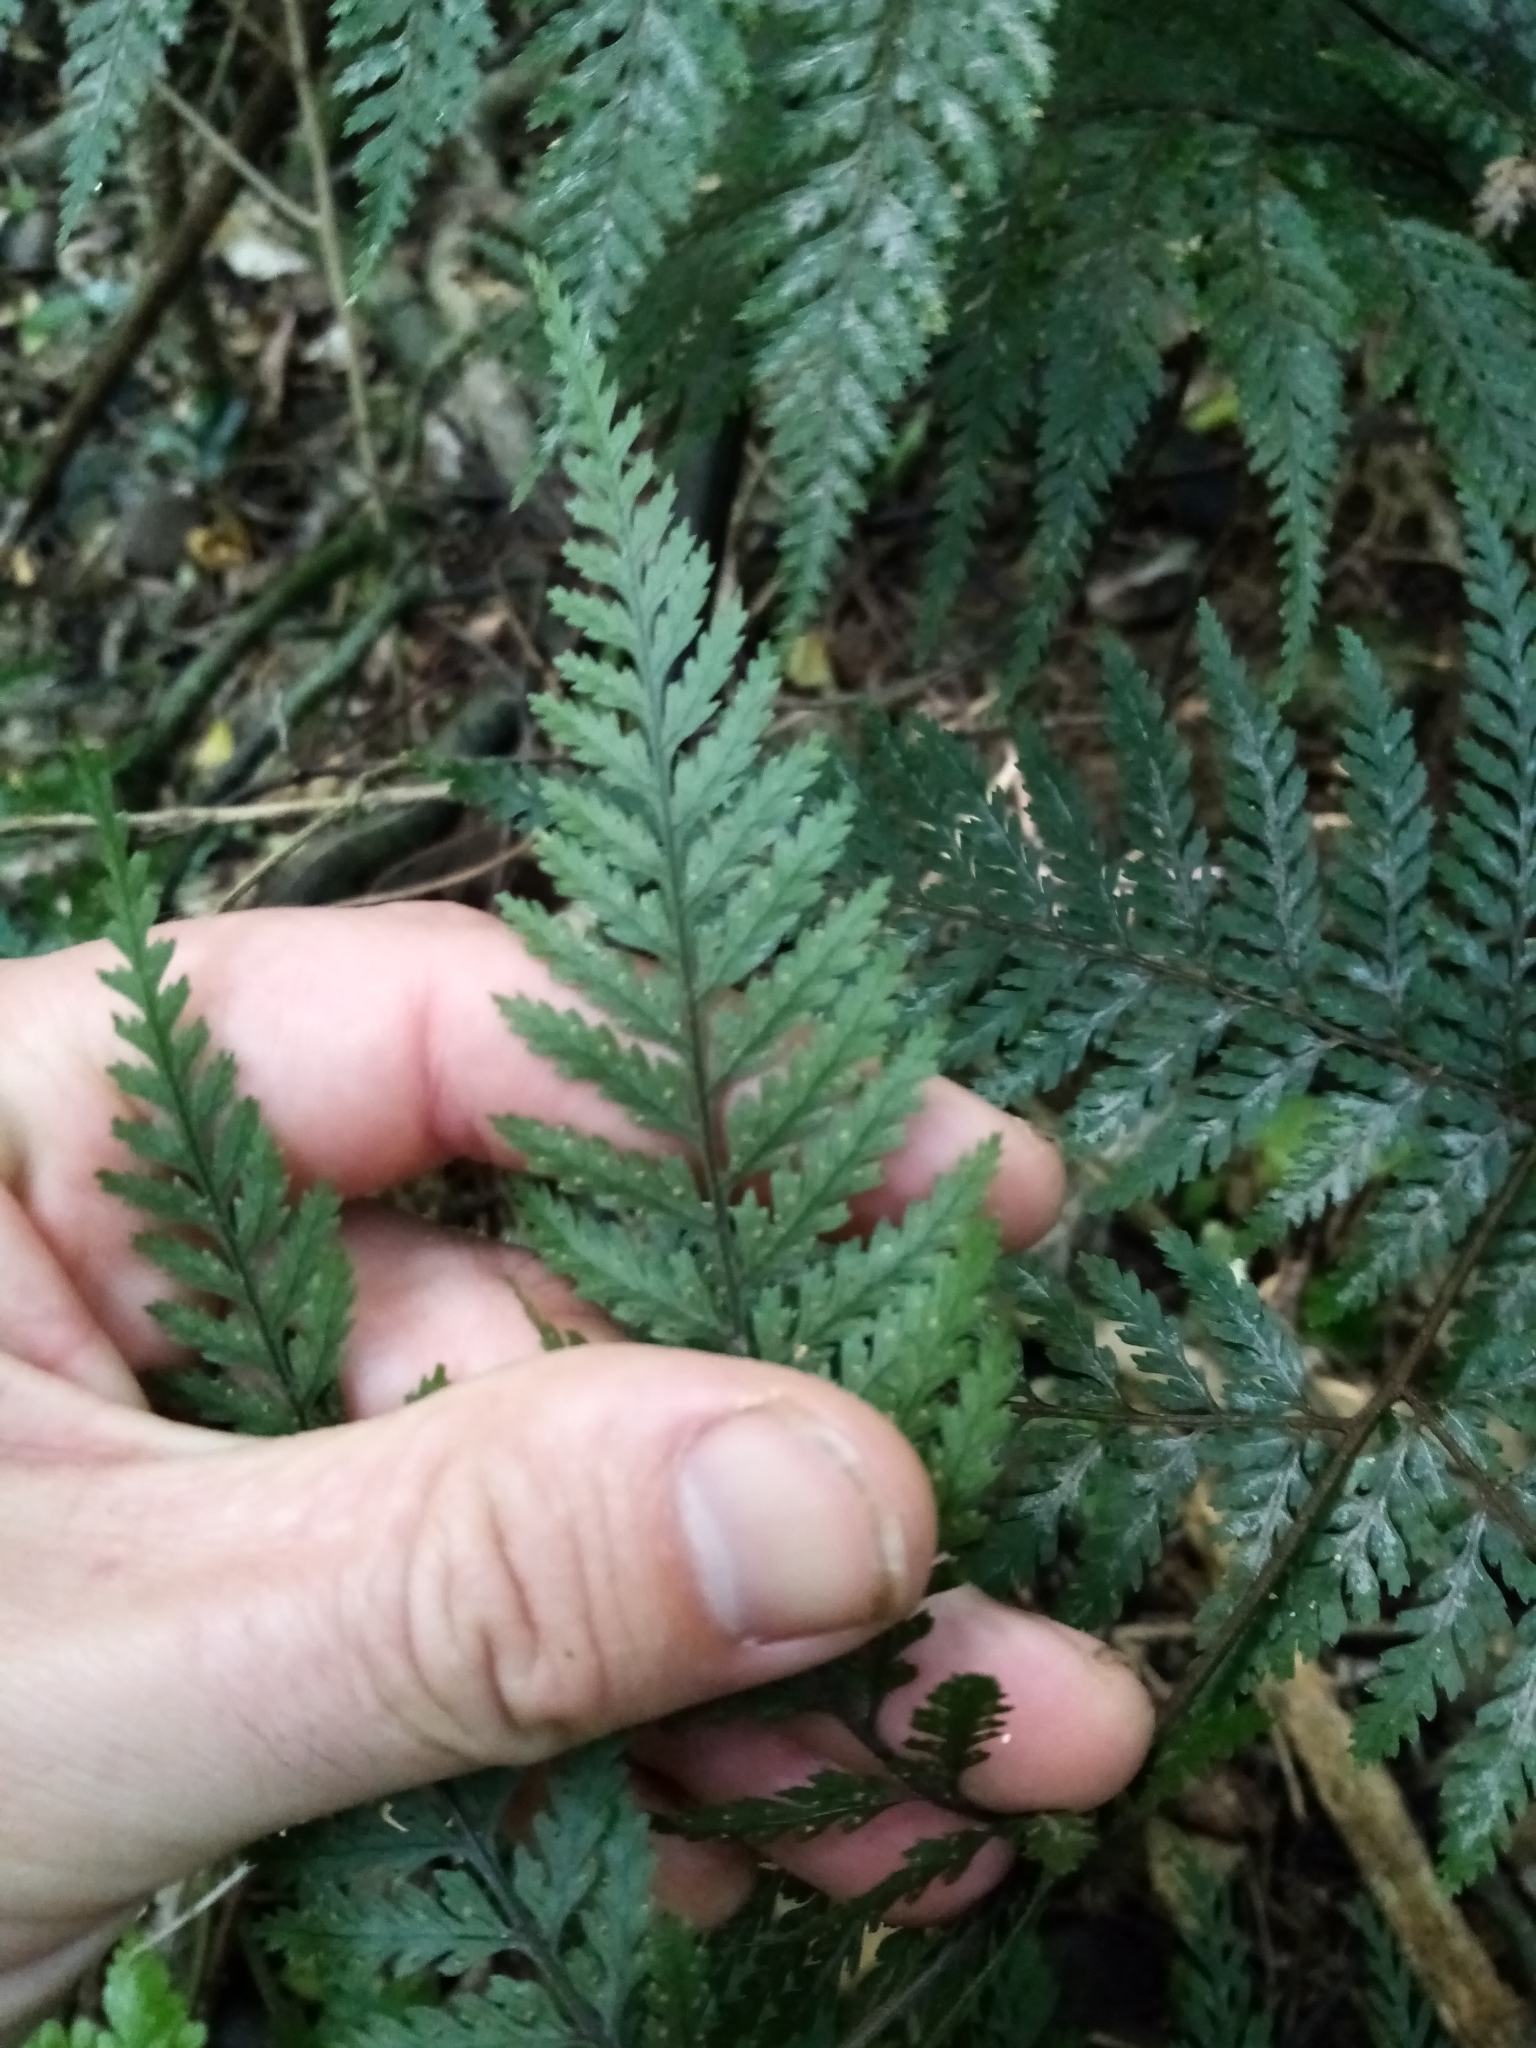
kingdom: Plantae
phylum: Tracheophyta
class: Polypodiopsida
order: Polypodiales
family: Dryopteridaceae
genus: Parapolystichum
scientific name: Parapolystichum glabellum
